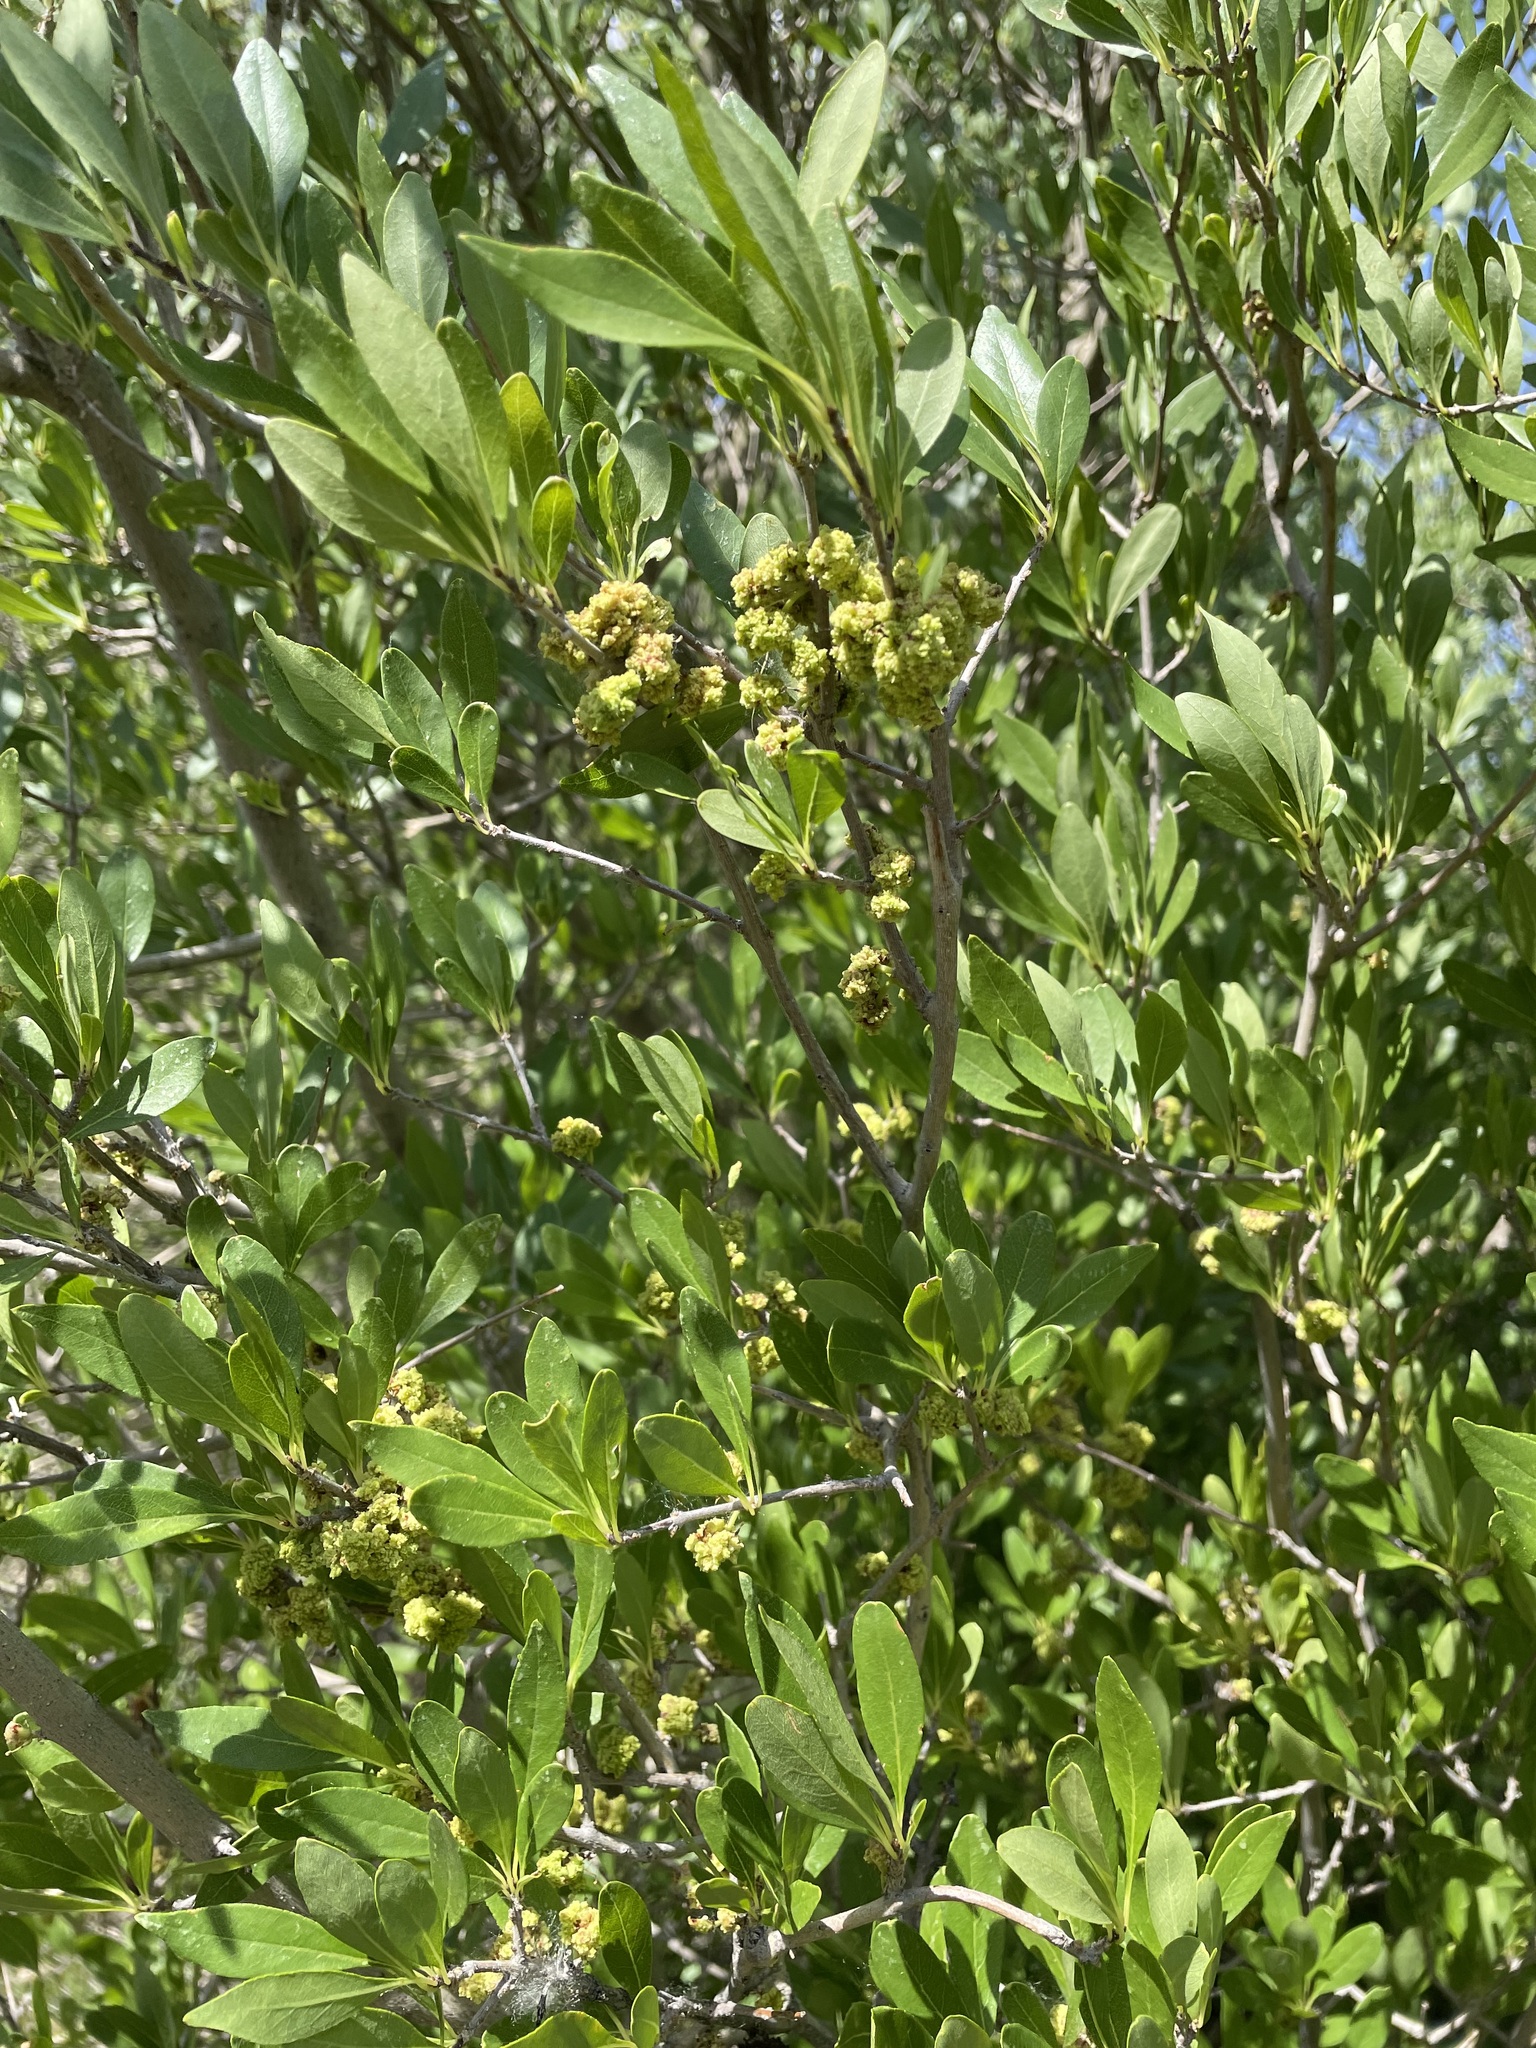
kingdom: Plantae
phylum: Tracheophyta
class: Magnoliopsida
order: Lamiales
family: Oleaceae
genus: Forestiera
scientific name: Forestiera pubescens
